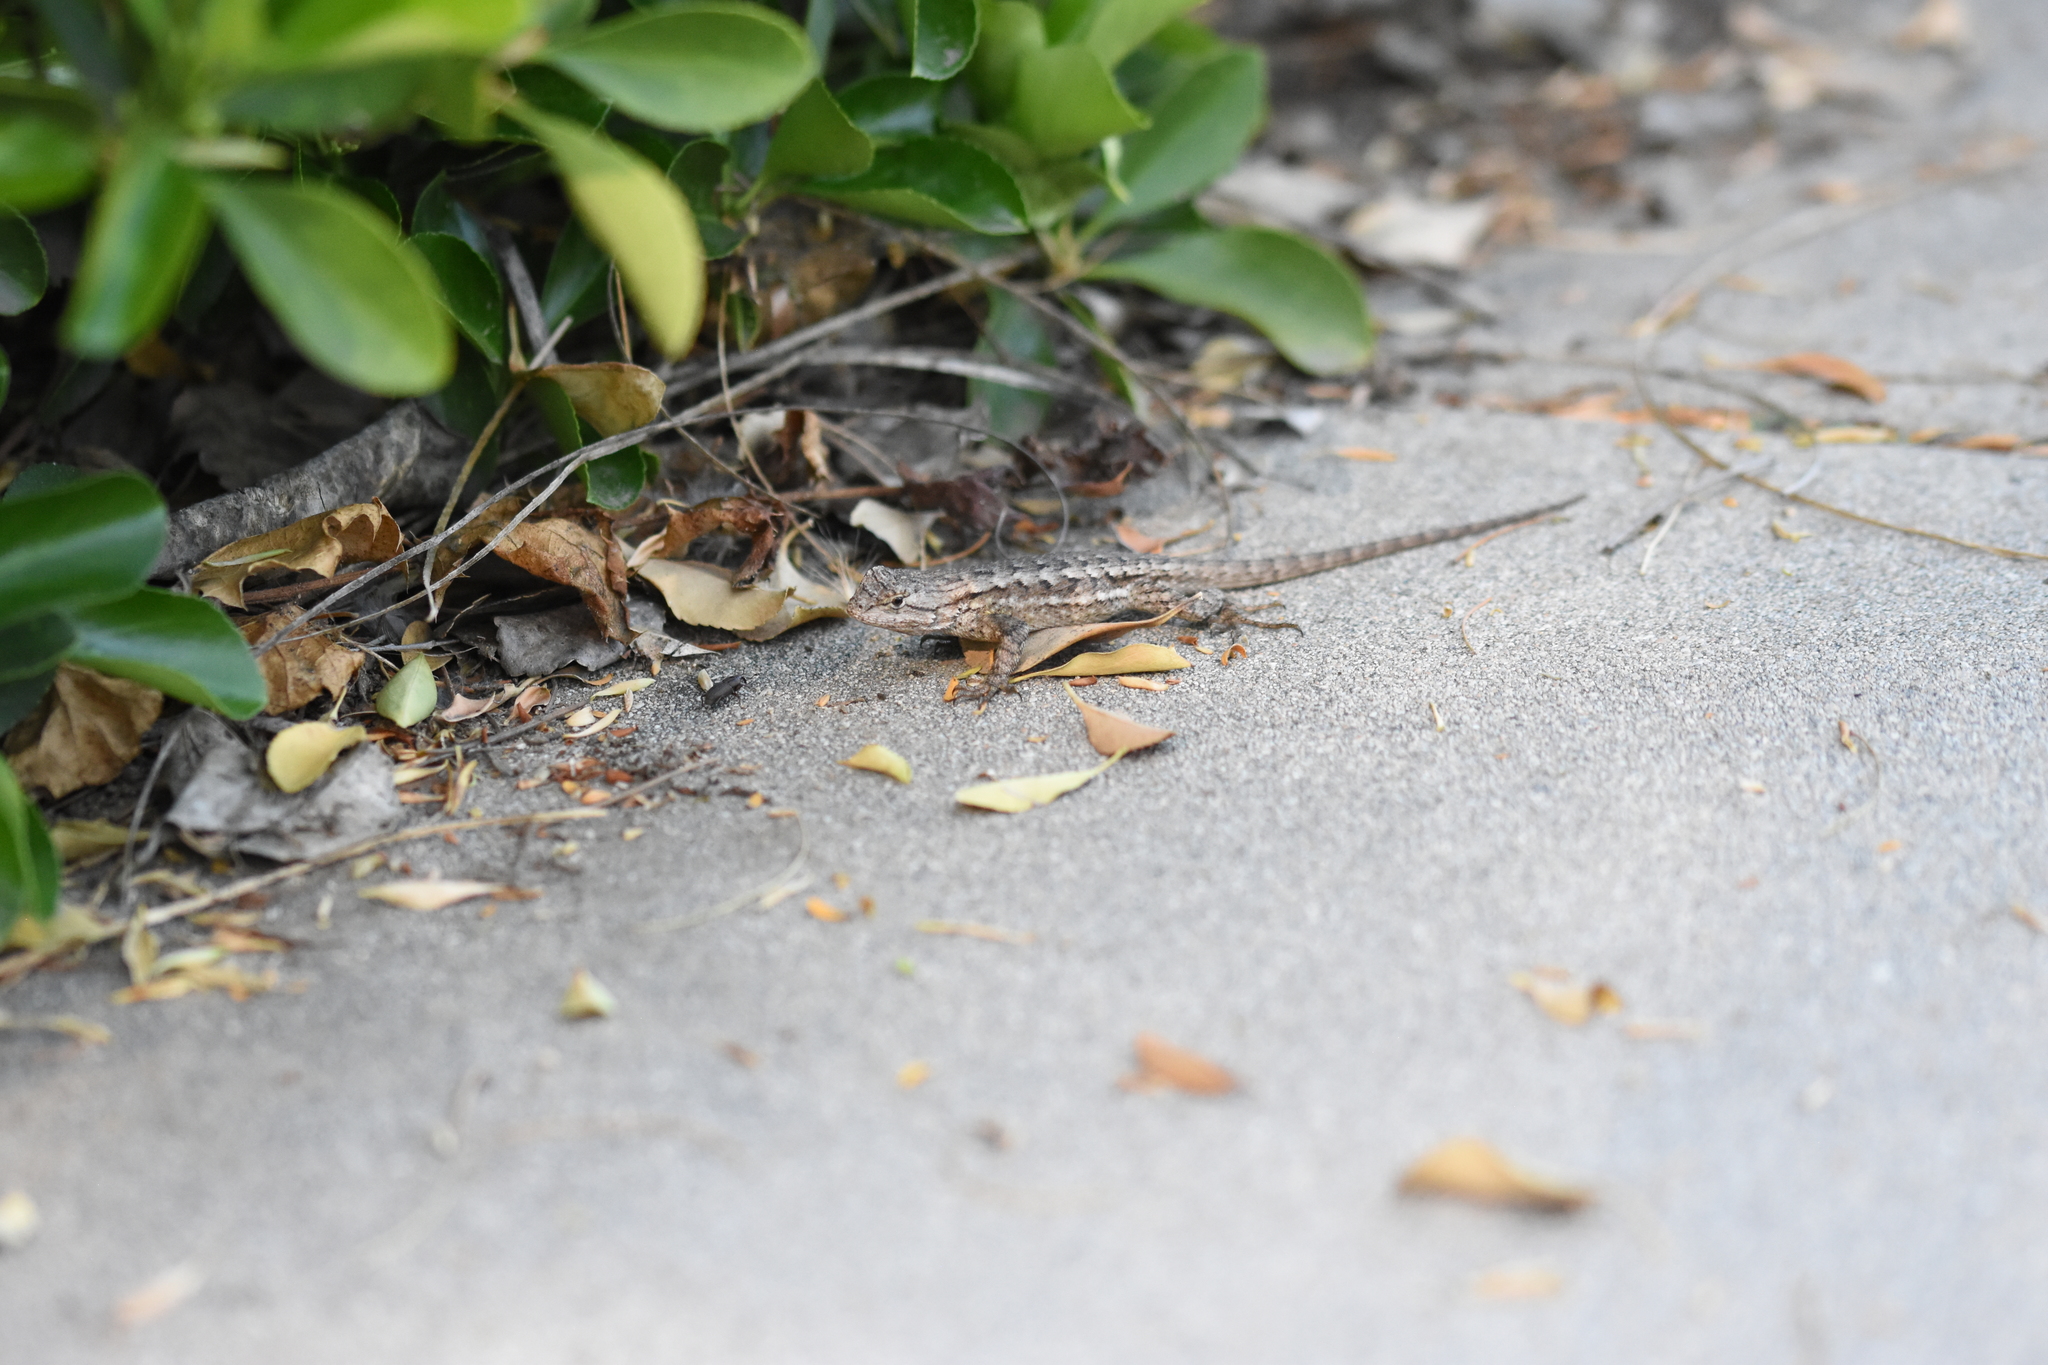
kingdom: Animalia
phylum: Chordata
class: Squamata
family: Phrynosomatidae
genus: Sceloporus
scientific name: Sceloporus occidentalis
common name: Western fence lizard
